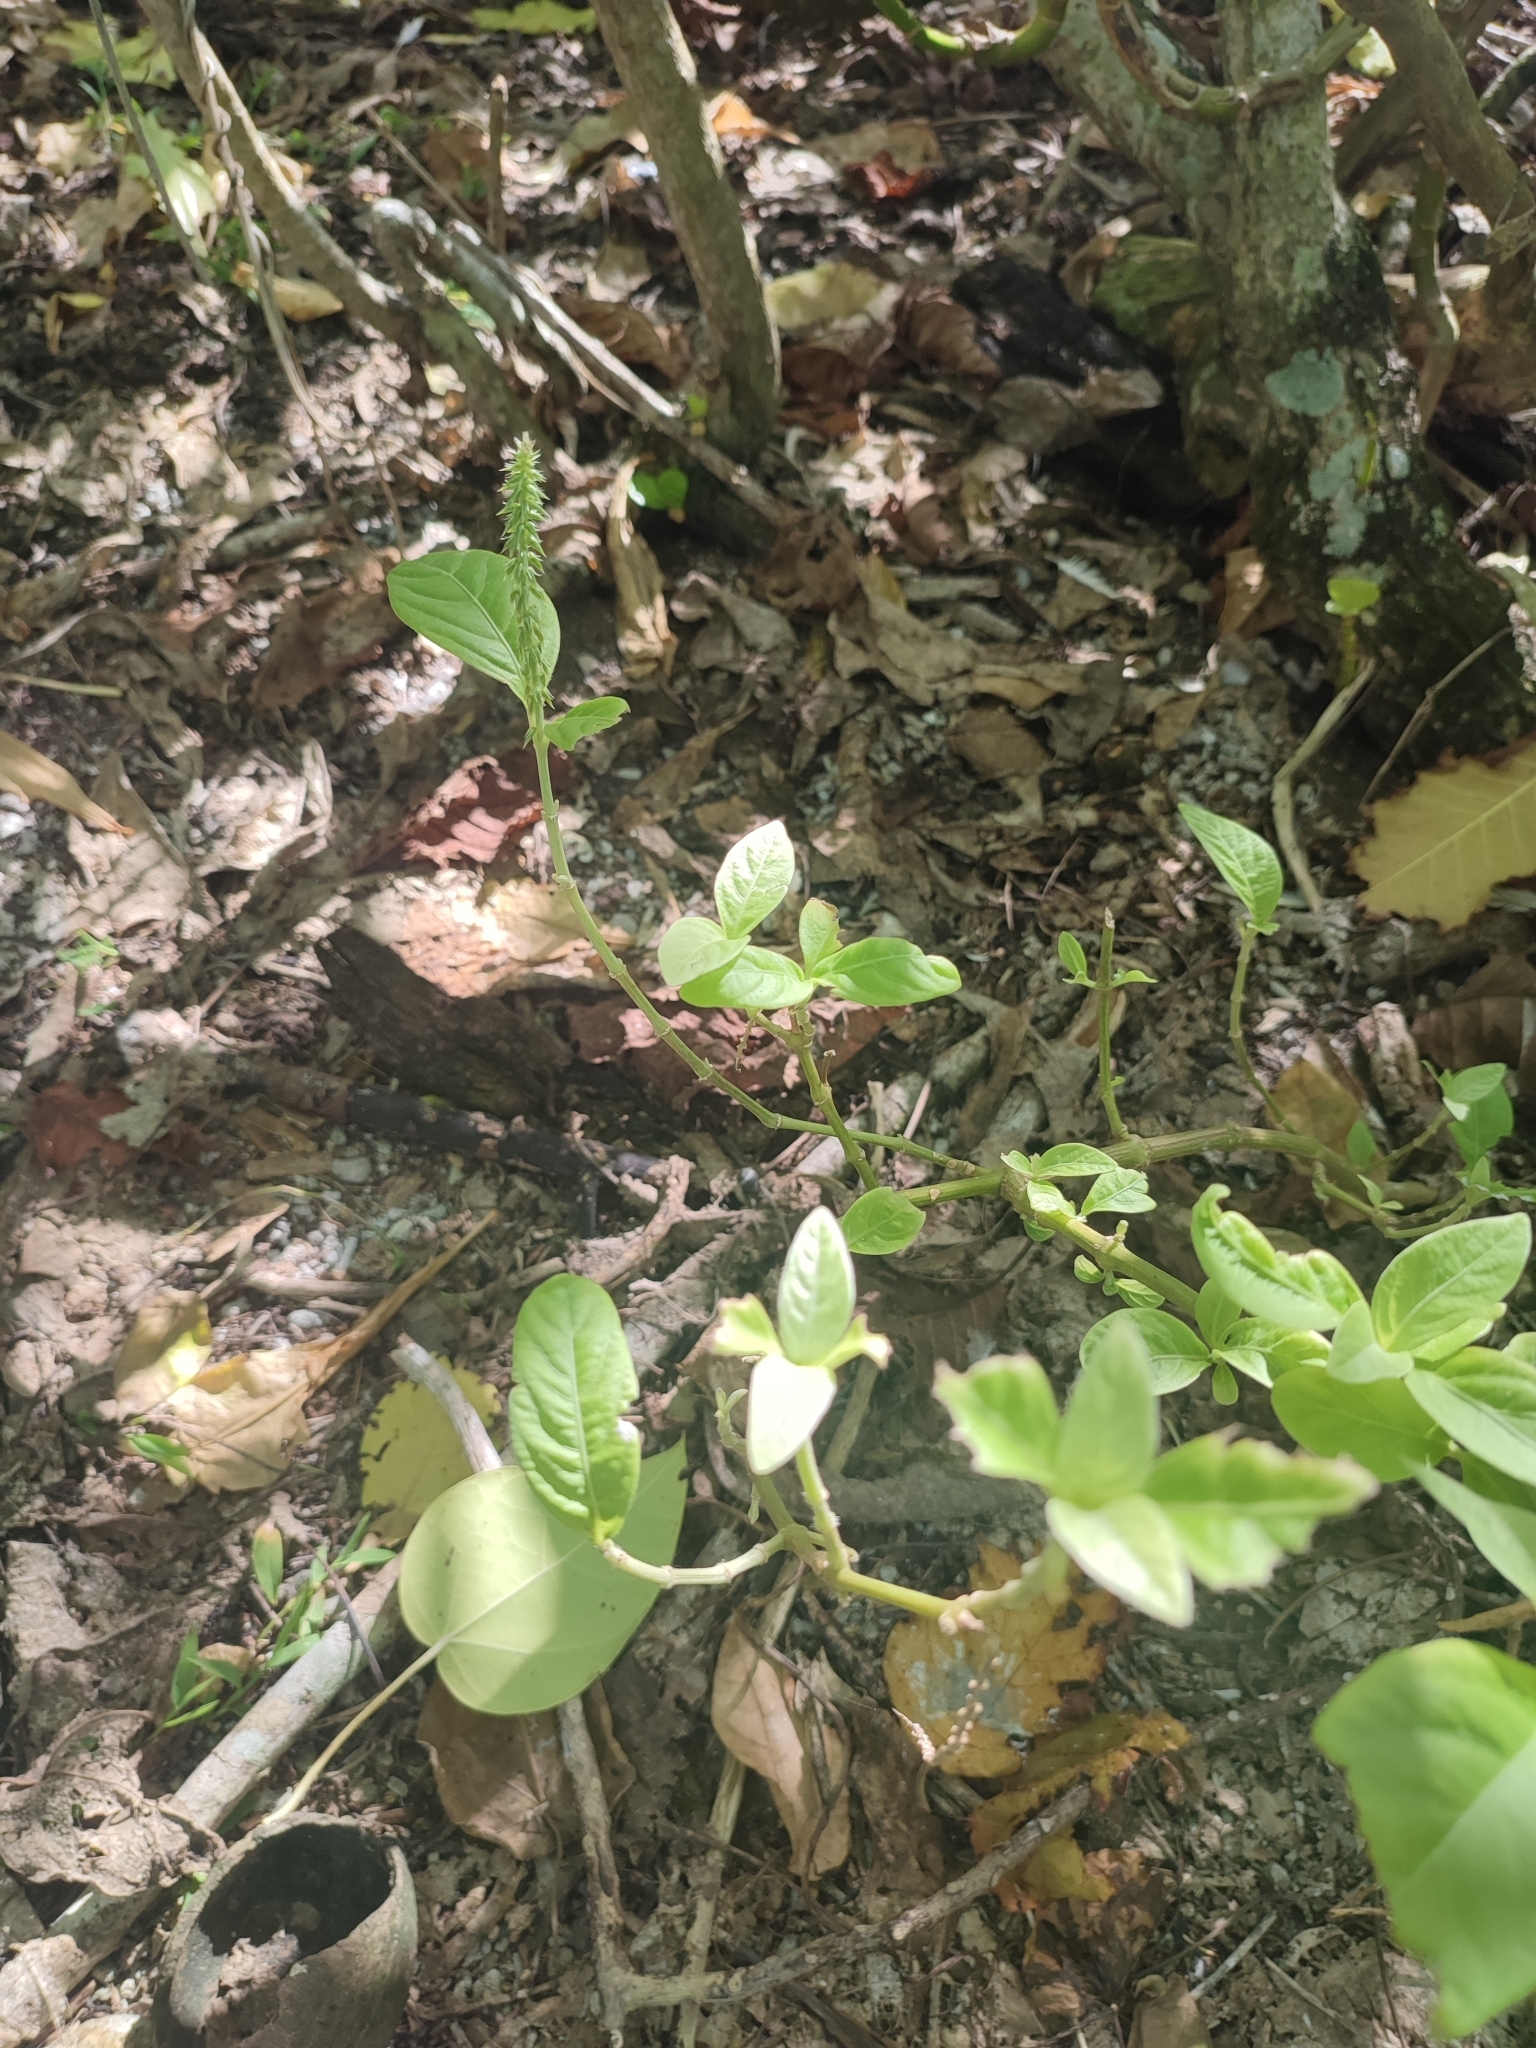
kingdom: Plantae
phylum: Tracheophyta
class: Magnoliopsida
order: Caryophyllales
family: Amaranthaceae
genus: Achyranthes
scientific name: Achyranthes aspera
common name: Devil's horsewhip
